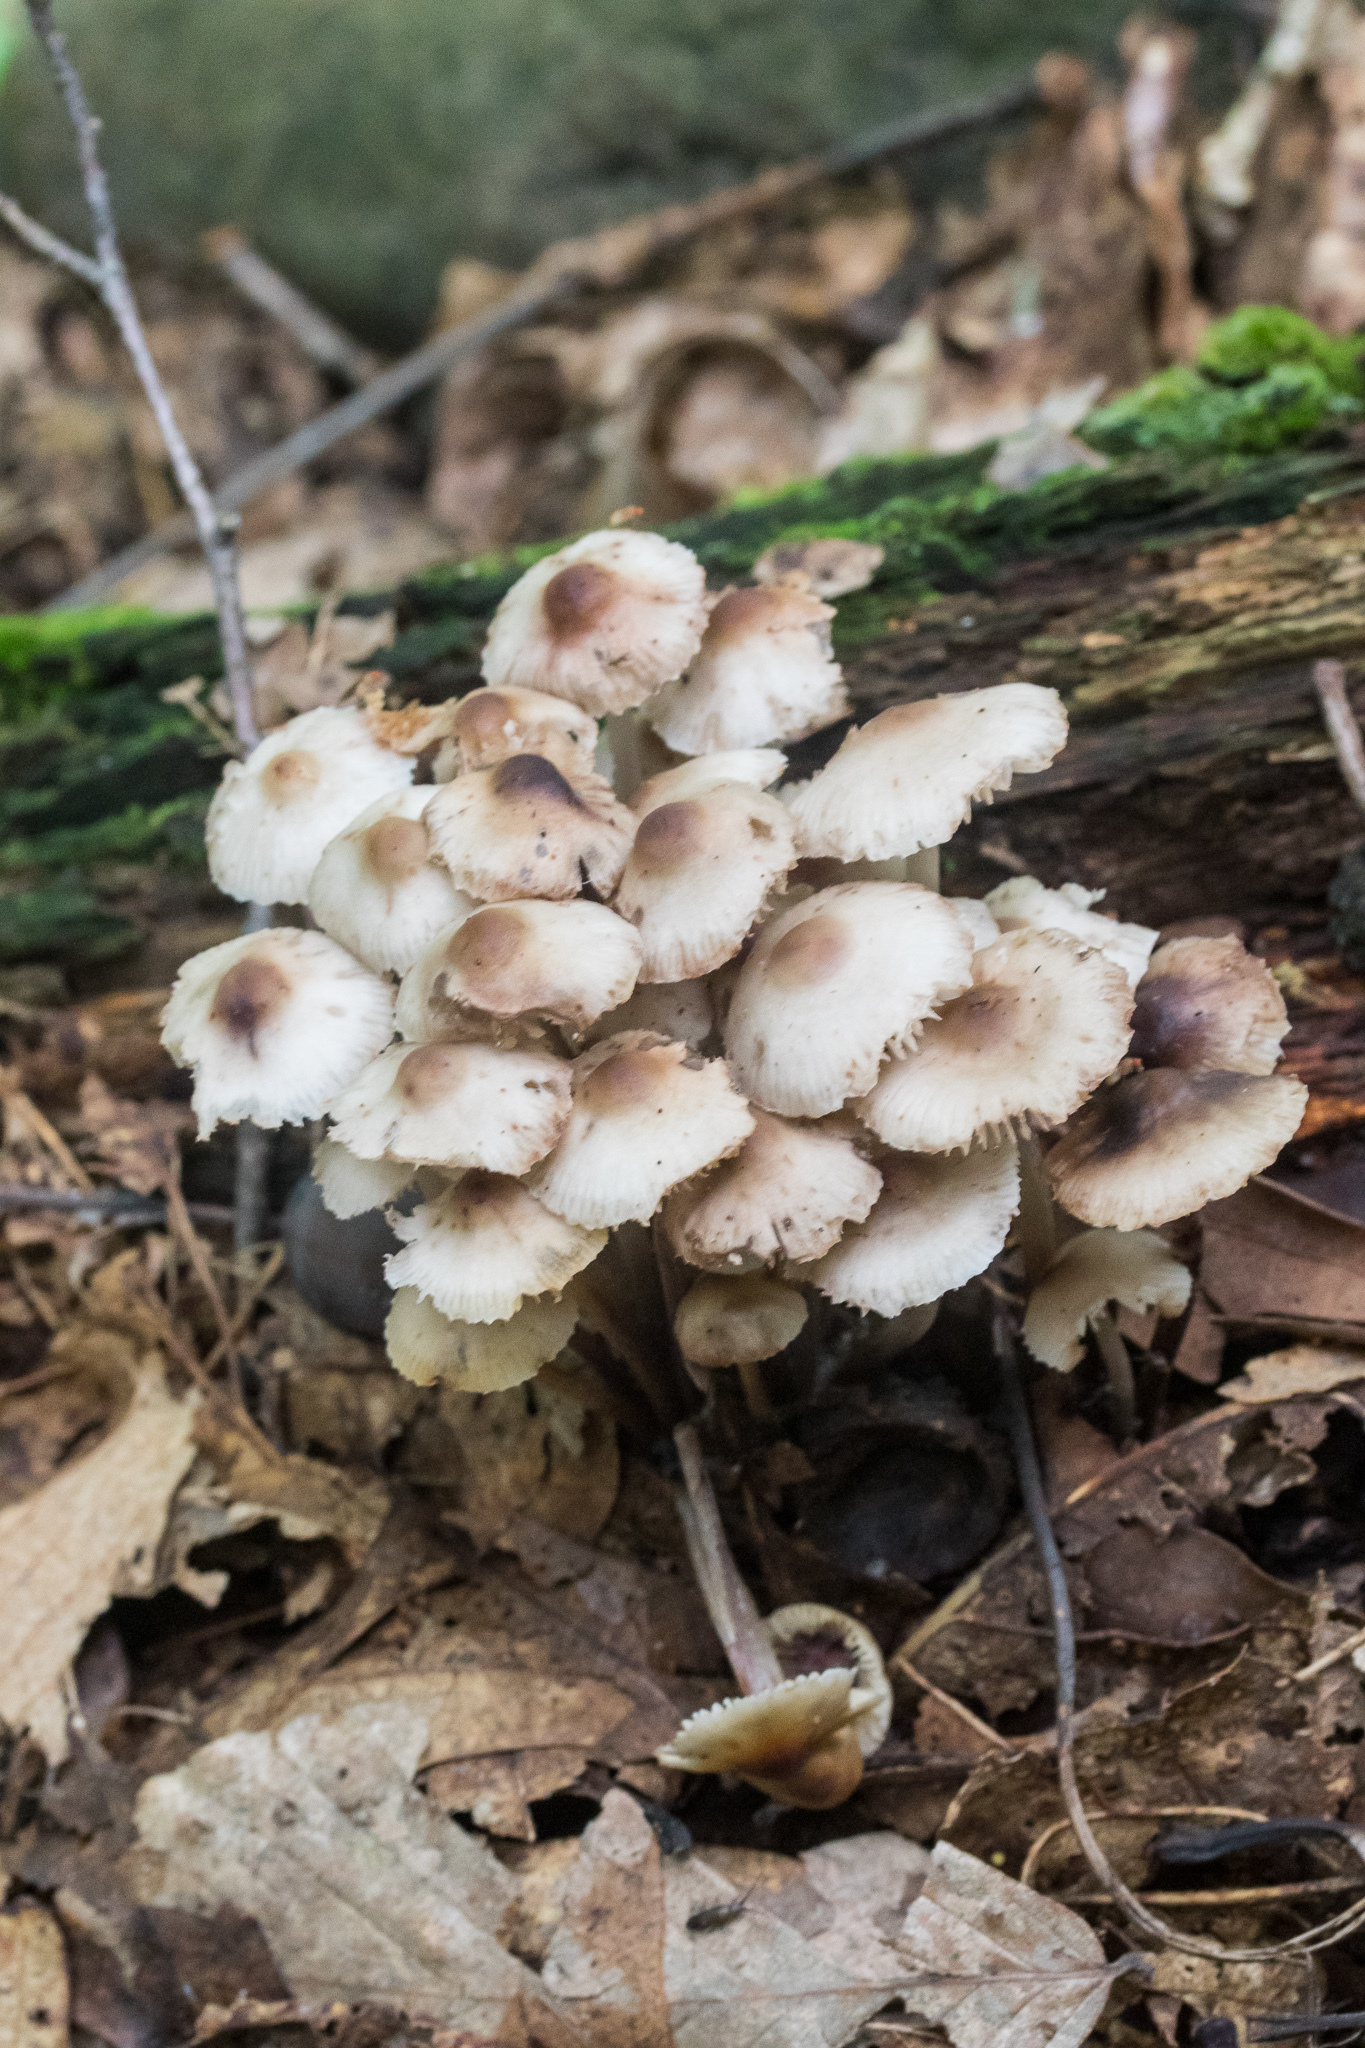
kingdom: Fungi
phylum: Basidiomycota
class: Agaricomycetes
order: Agaricales
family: Mycenaceae
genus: Mycena
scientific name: Mycena inclinata
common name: Clustered bonnet
